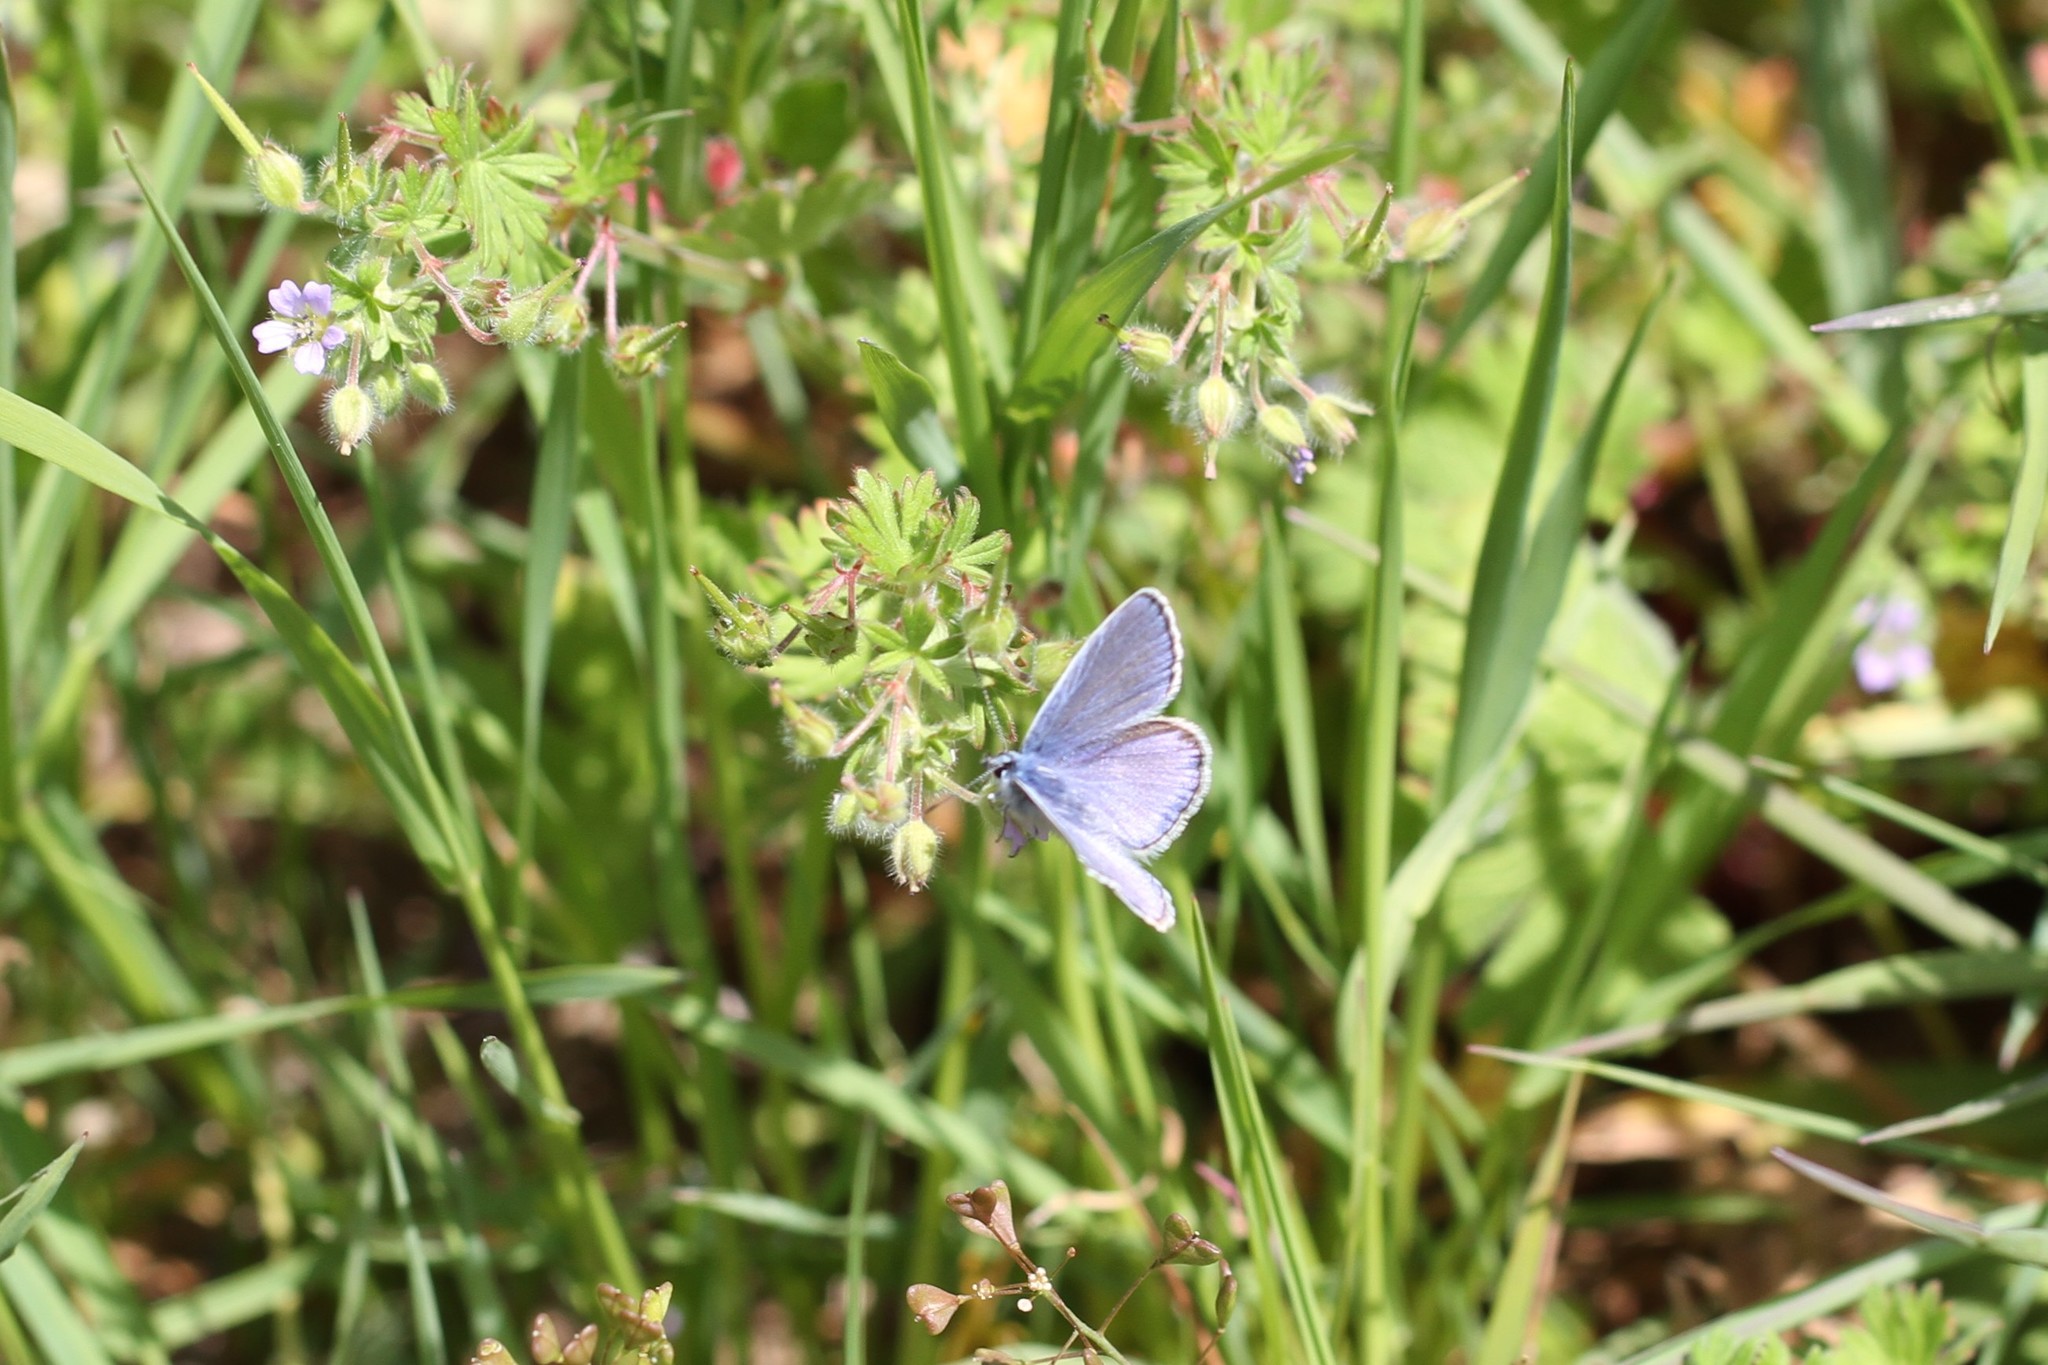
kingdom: Animalia
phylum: Arthropoda
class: Insecta
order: Lepidoptera
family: Lycaenidae
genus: Polyommatus
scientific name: Polyommatus icarus
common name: Common blue
